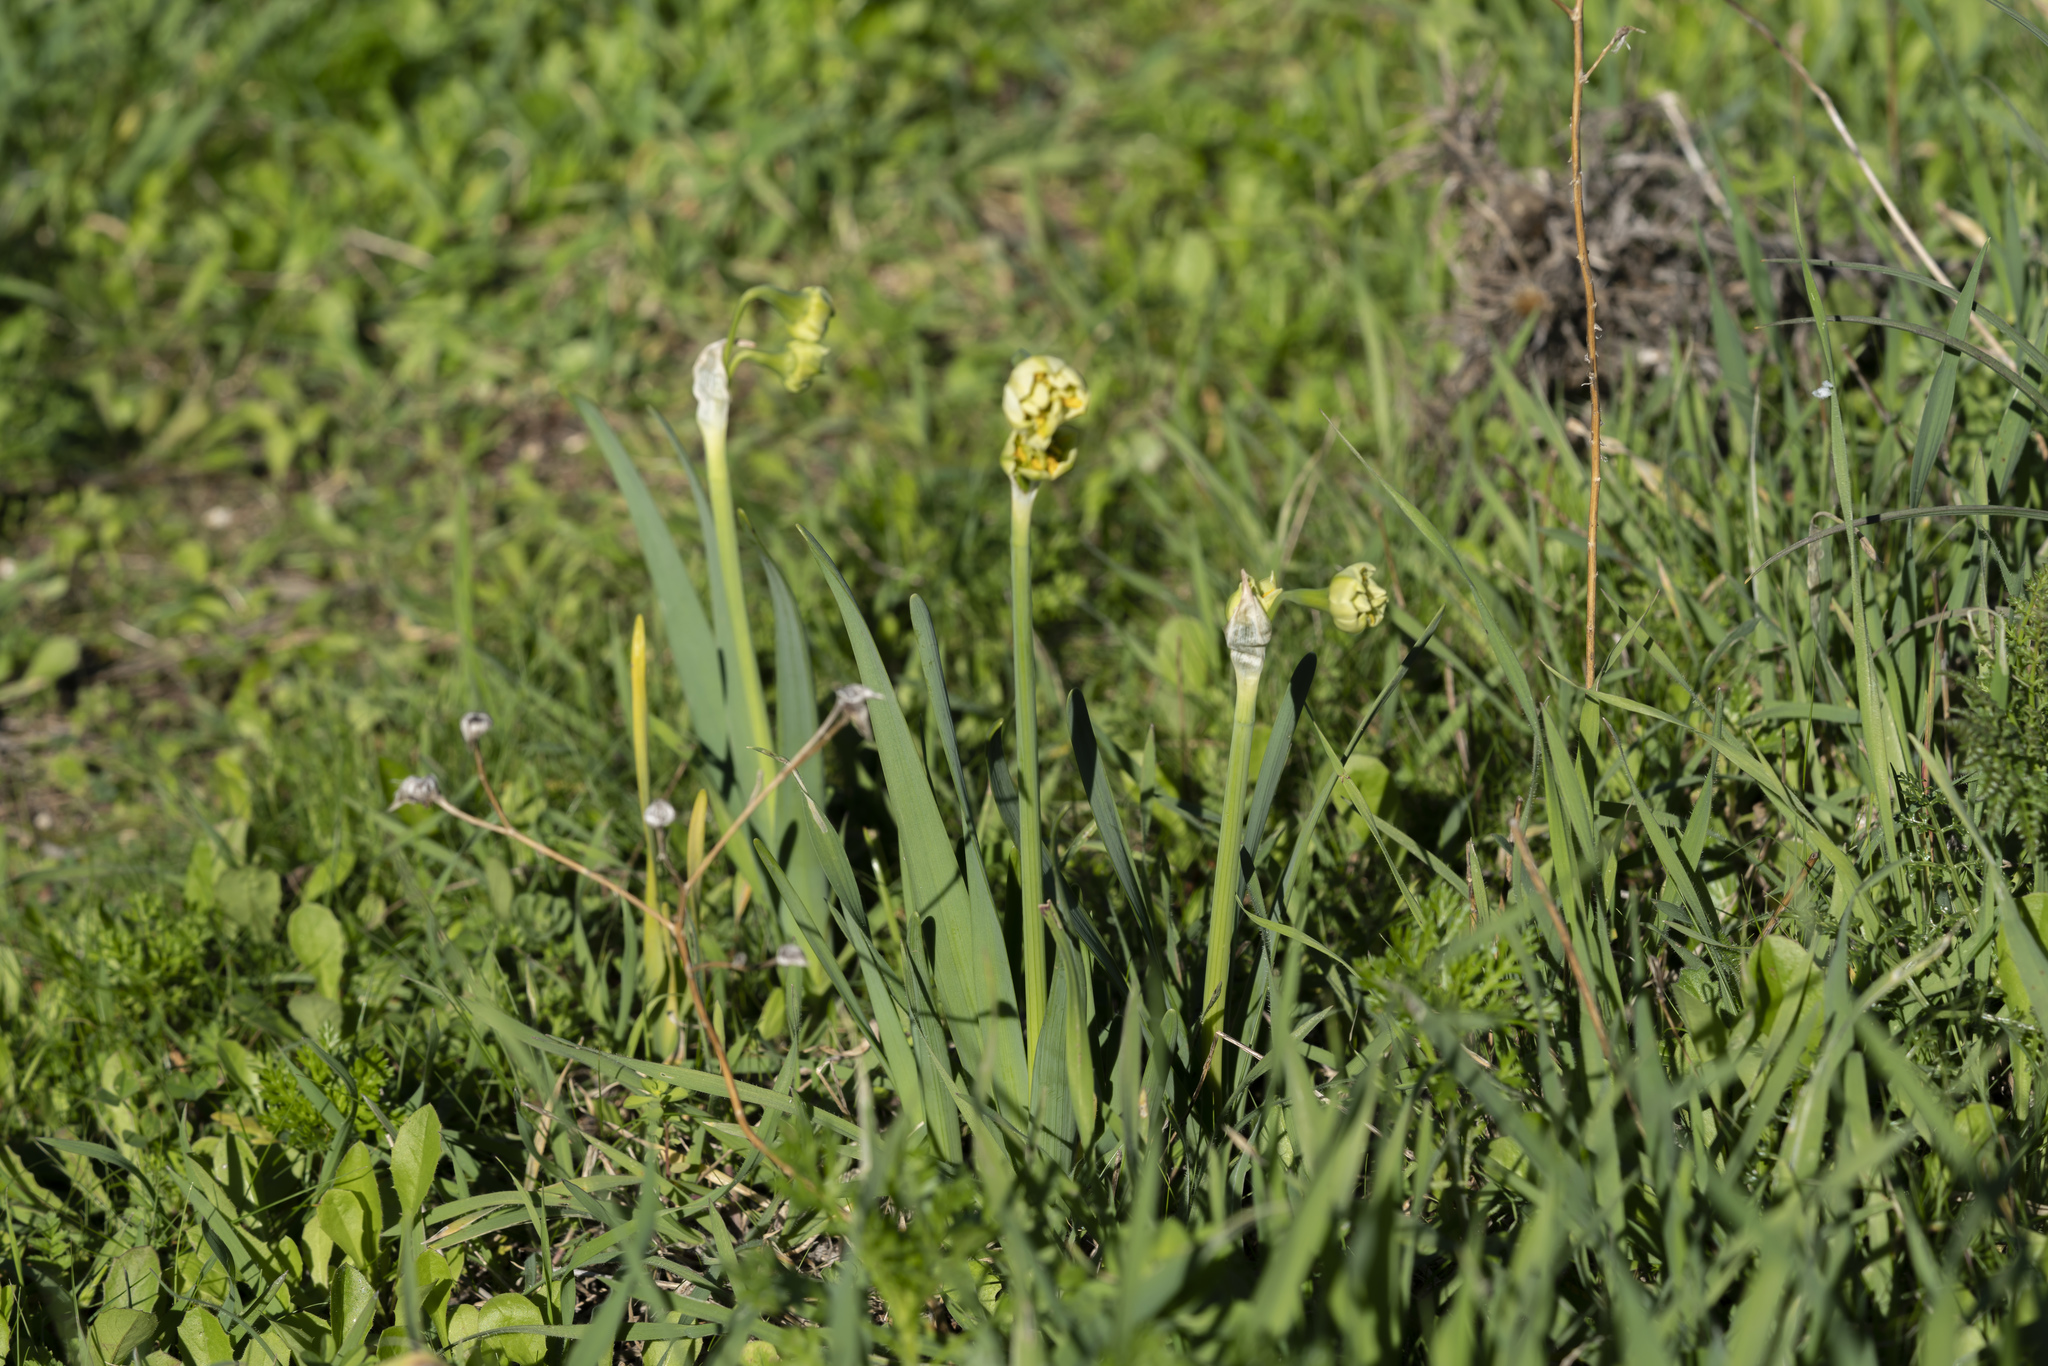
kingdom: Plantae
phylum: Tracheophyta
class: Liliopsida
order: Asparagales
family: Amaryllidaceae
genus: Narcissus
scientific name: Narcissus tazetta
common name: Bunch-flowered daffodil
